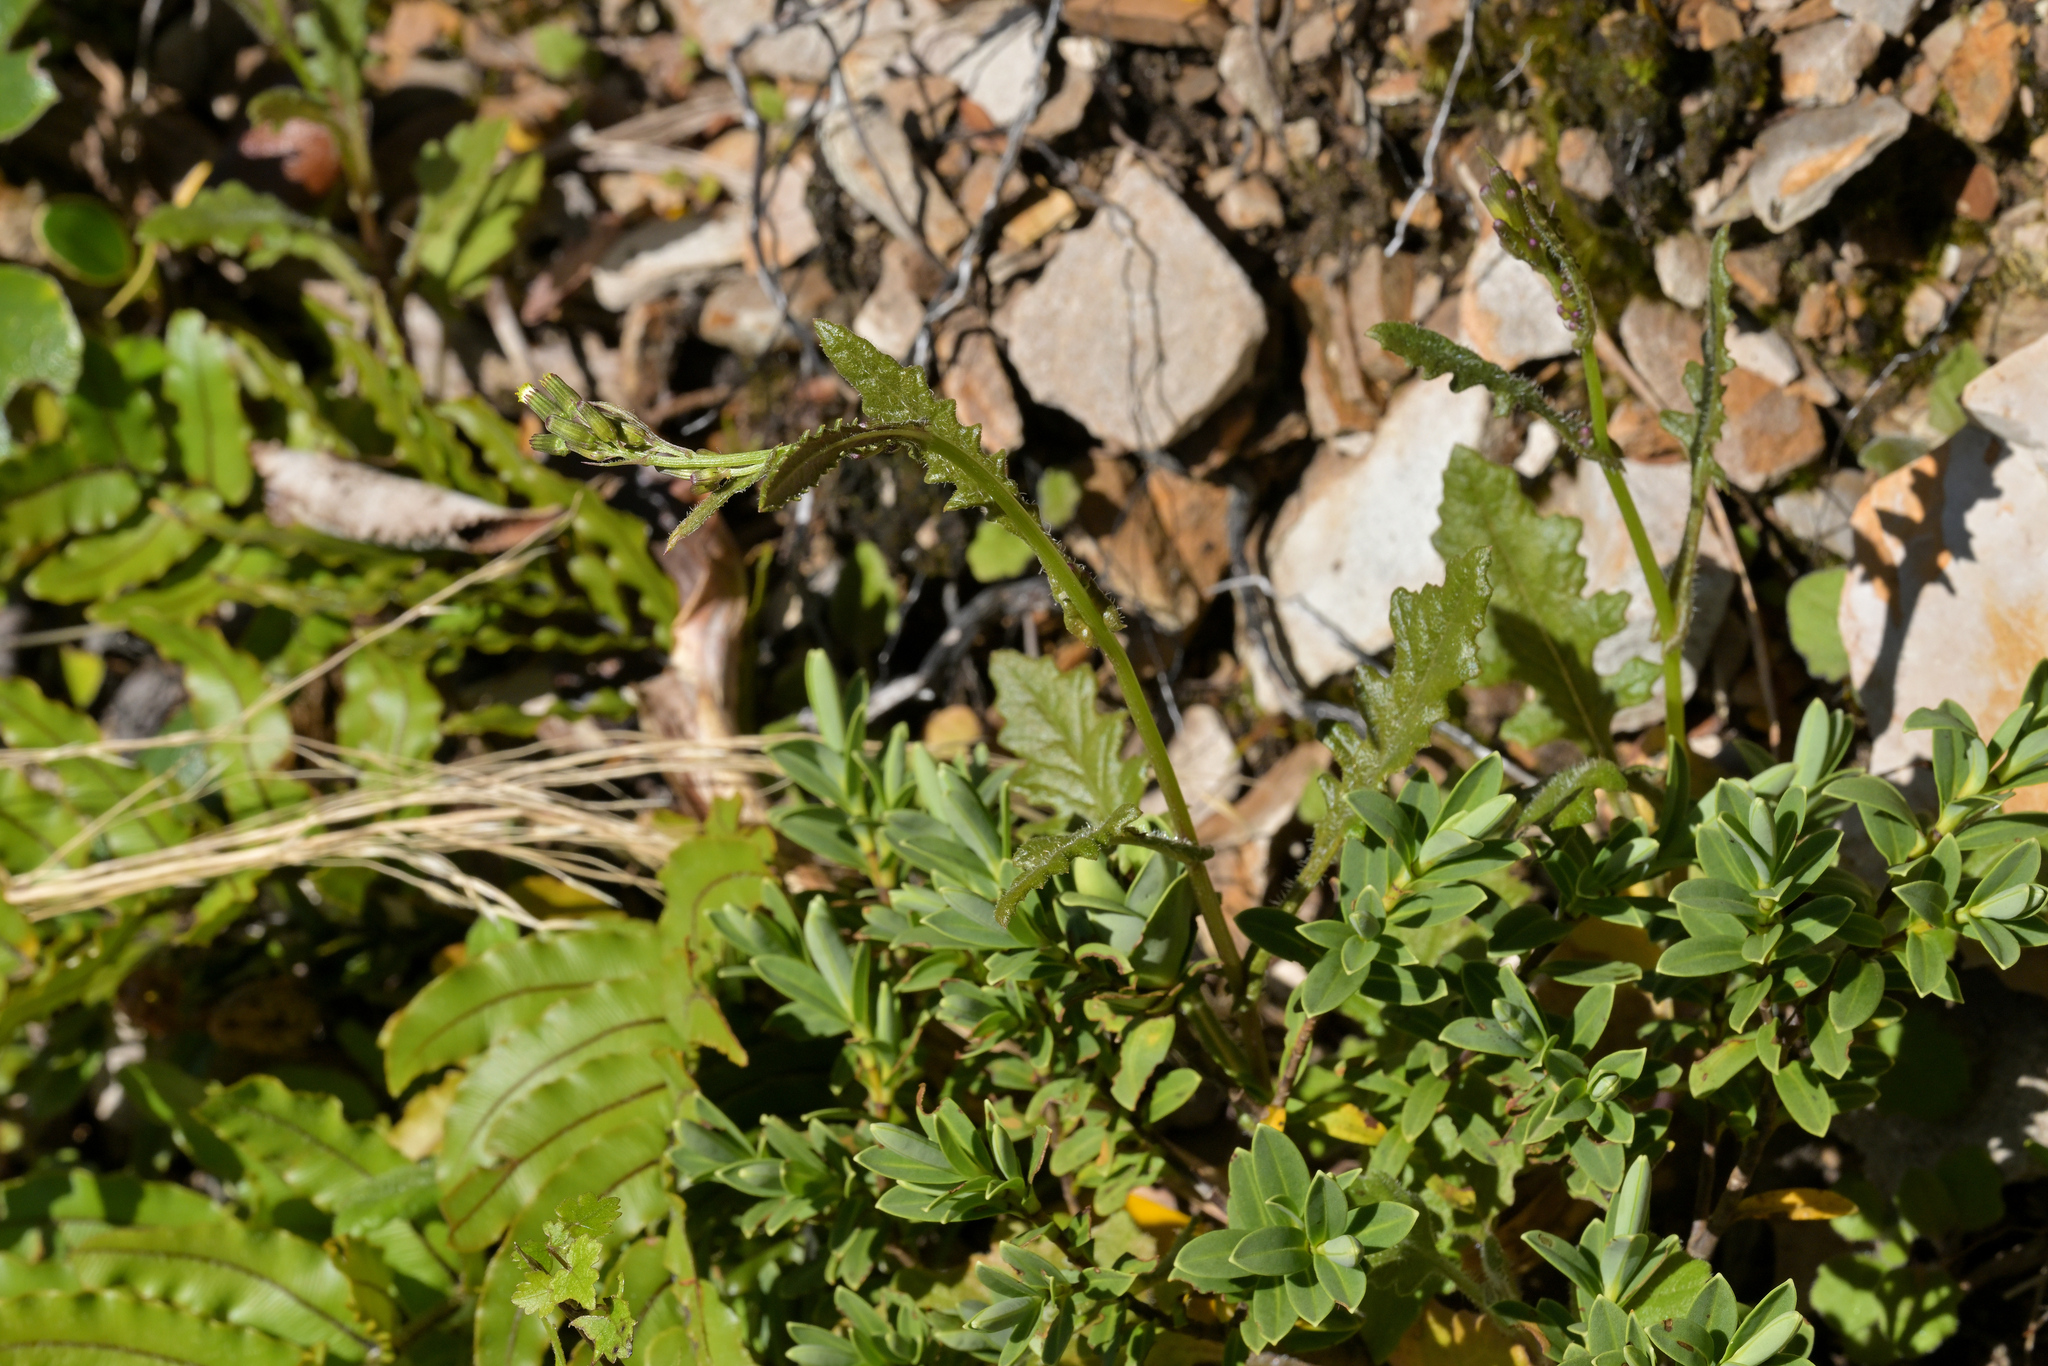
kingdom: Plantae
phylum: Tracheophyta
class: Magnoliopsida
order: Asterales
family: Asteraceae
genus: Senecio
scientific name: Senecio wairauensis
